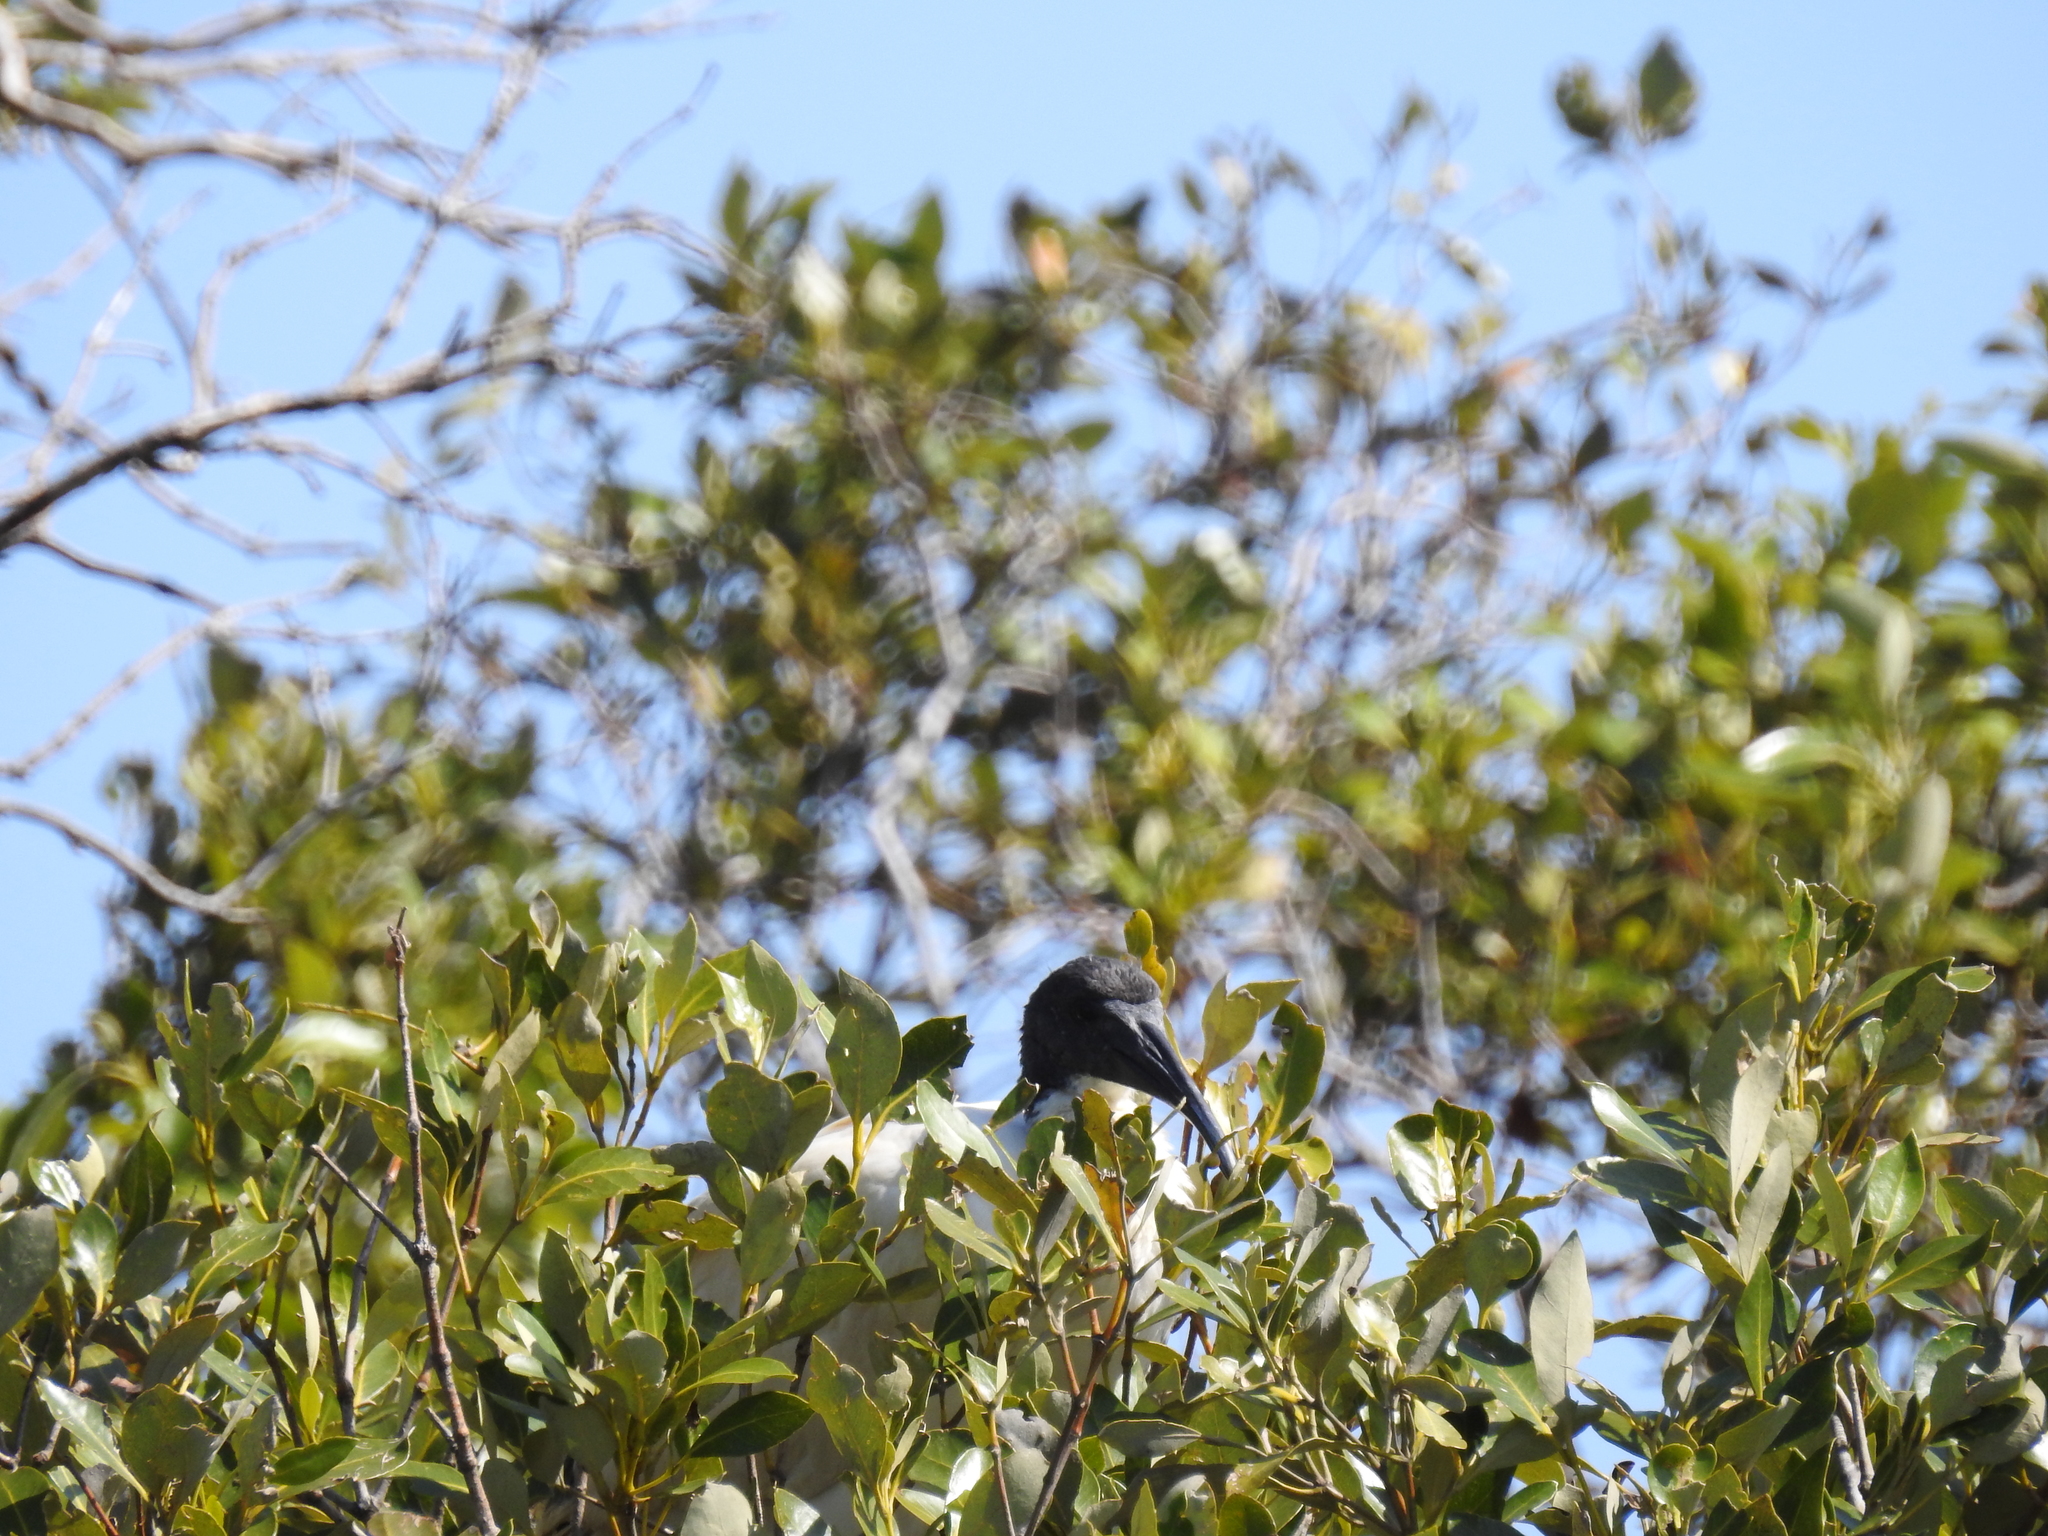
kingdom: Animalia
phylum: Chordata
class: Aves
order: Pelecaniformes
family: Threskiornithidae
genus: Threskiornis
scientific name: Threskiornis molucca
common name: Australian white ibis
